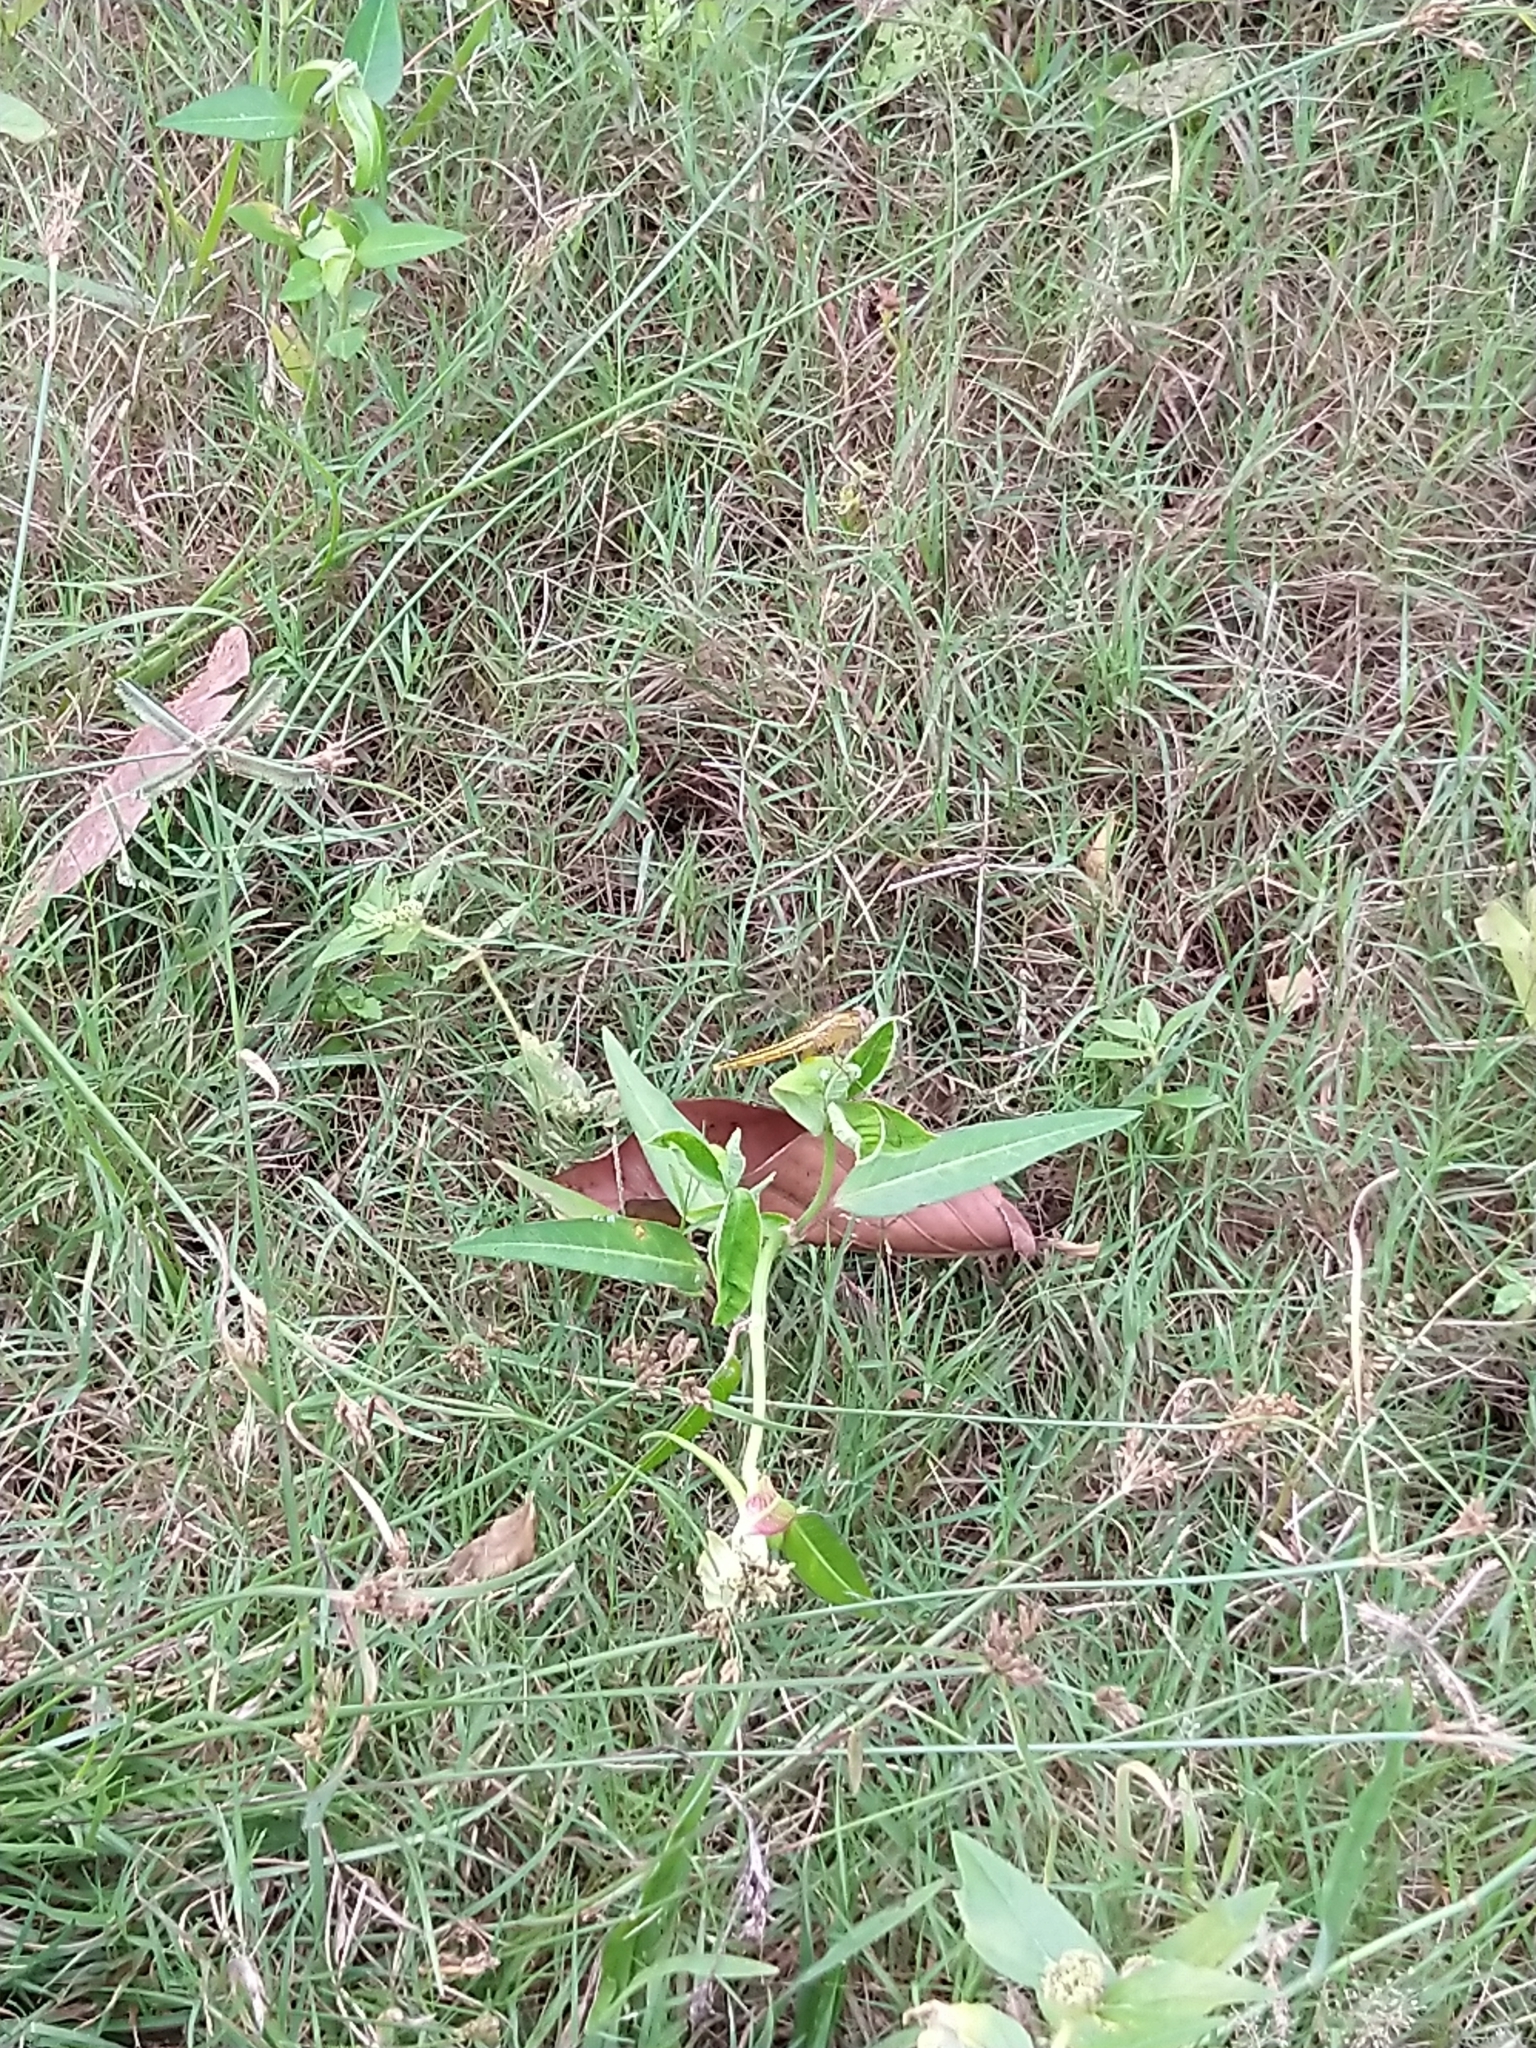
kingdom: Animalia
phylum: Arthropoda
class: Insecta
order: Odonata
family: Libellulidae
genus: Crocothemis
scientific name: Crocothemis servilia
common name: Scarlet skimmer
